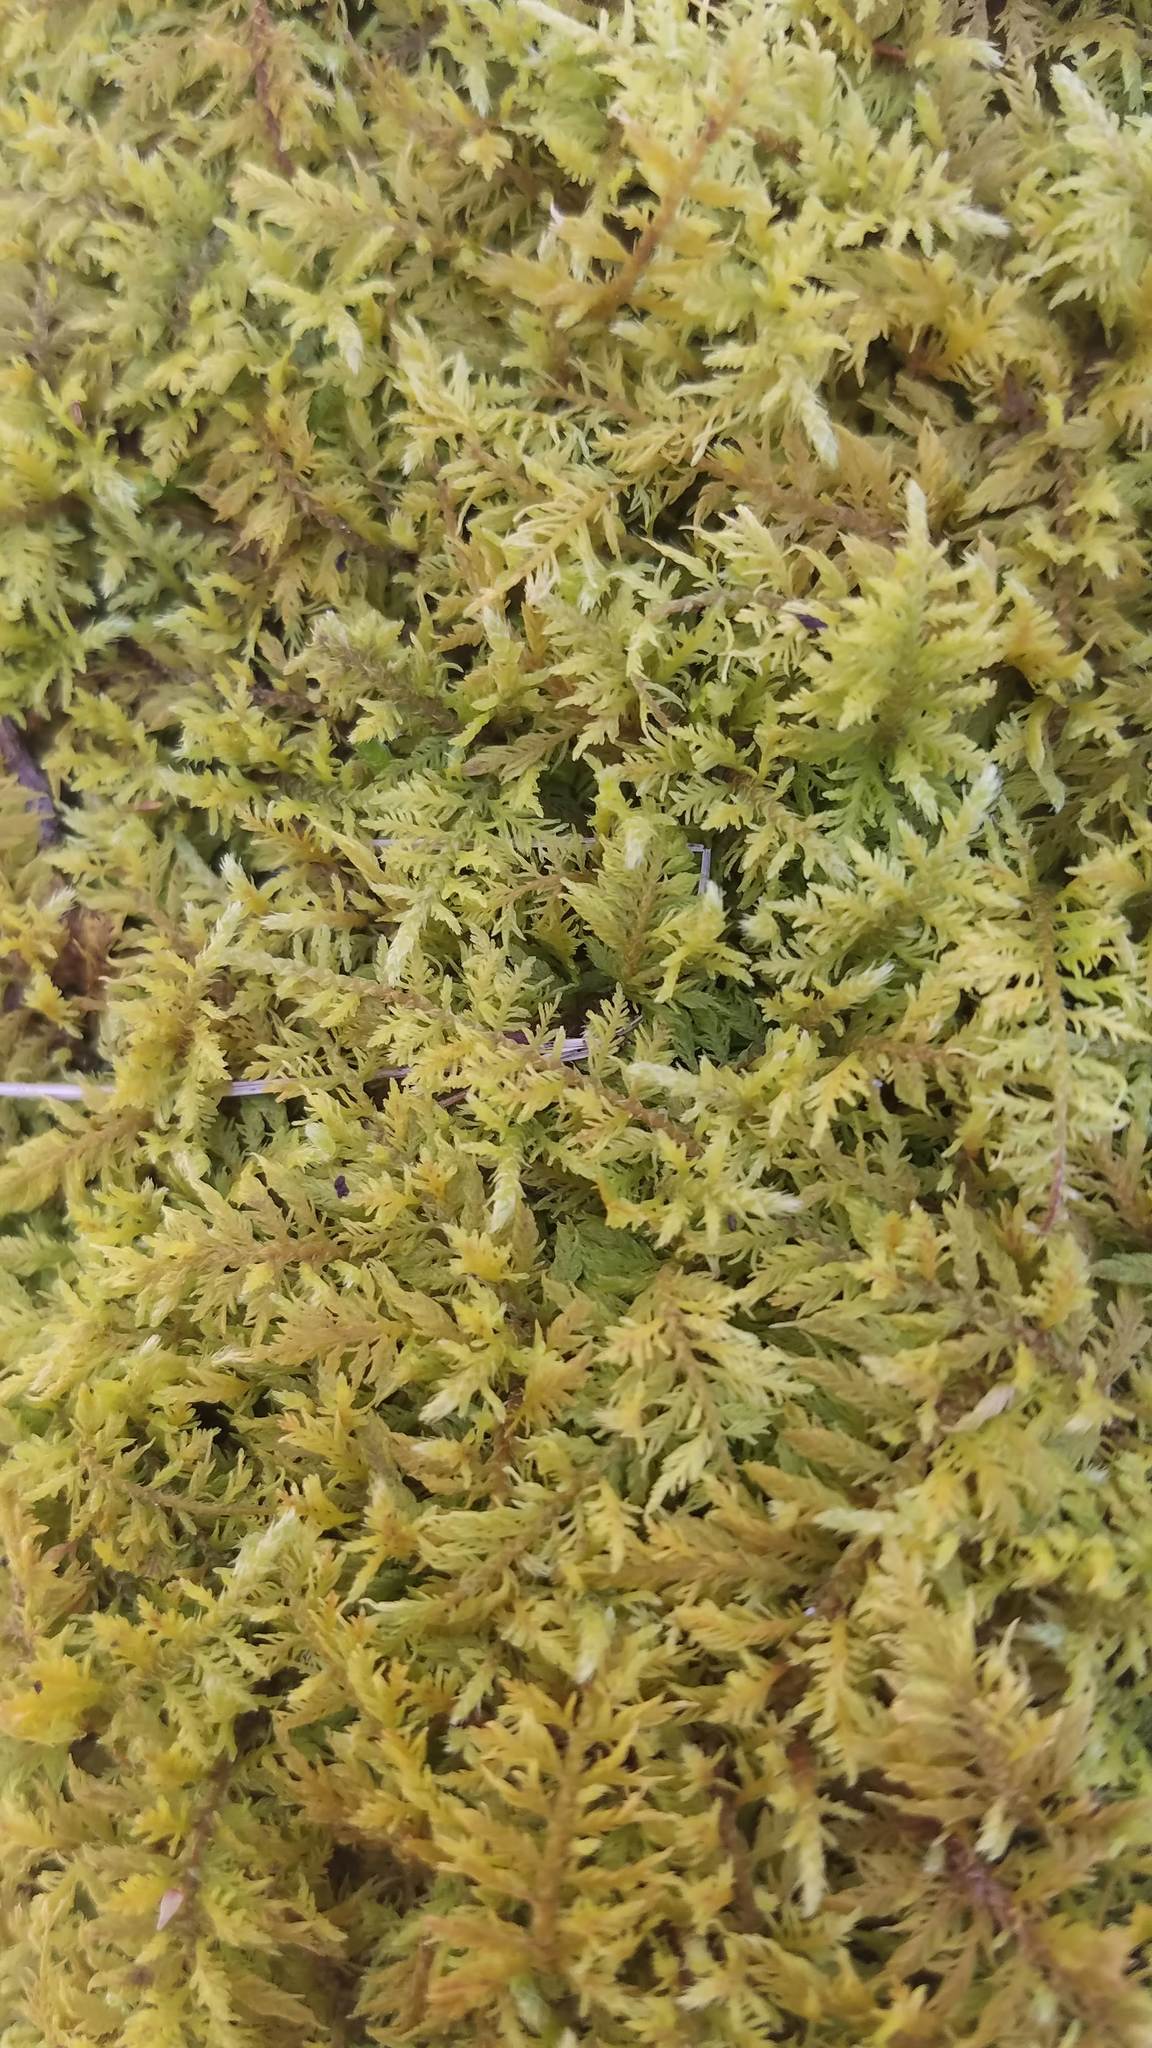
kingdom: Plantae
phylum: Bryophyta
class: Bryopsida
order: Hypnales
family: Thuidiaceae
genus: Thuidium
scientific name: Thuidium delicatulum
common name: Delicate fern moss
